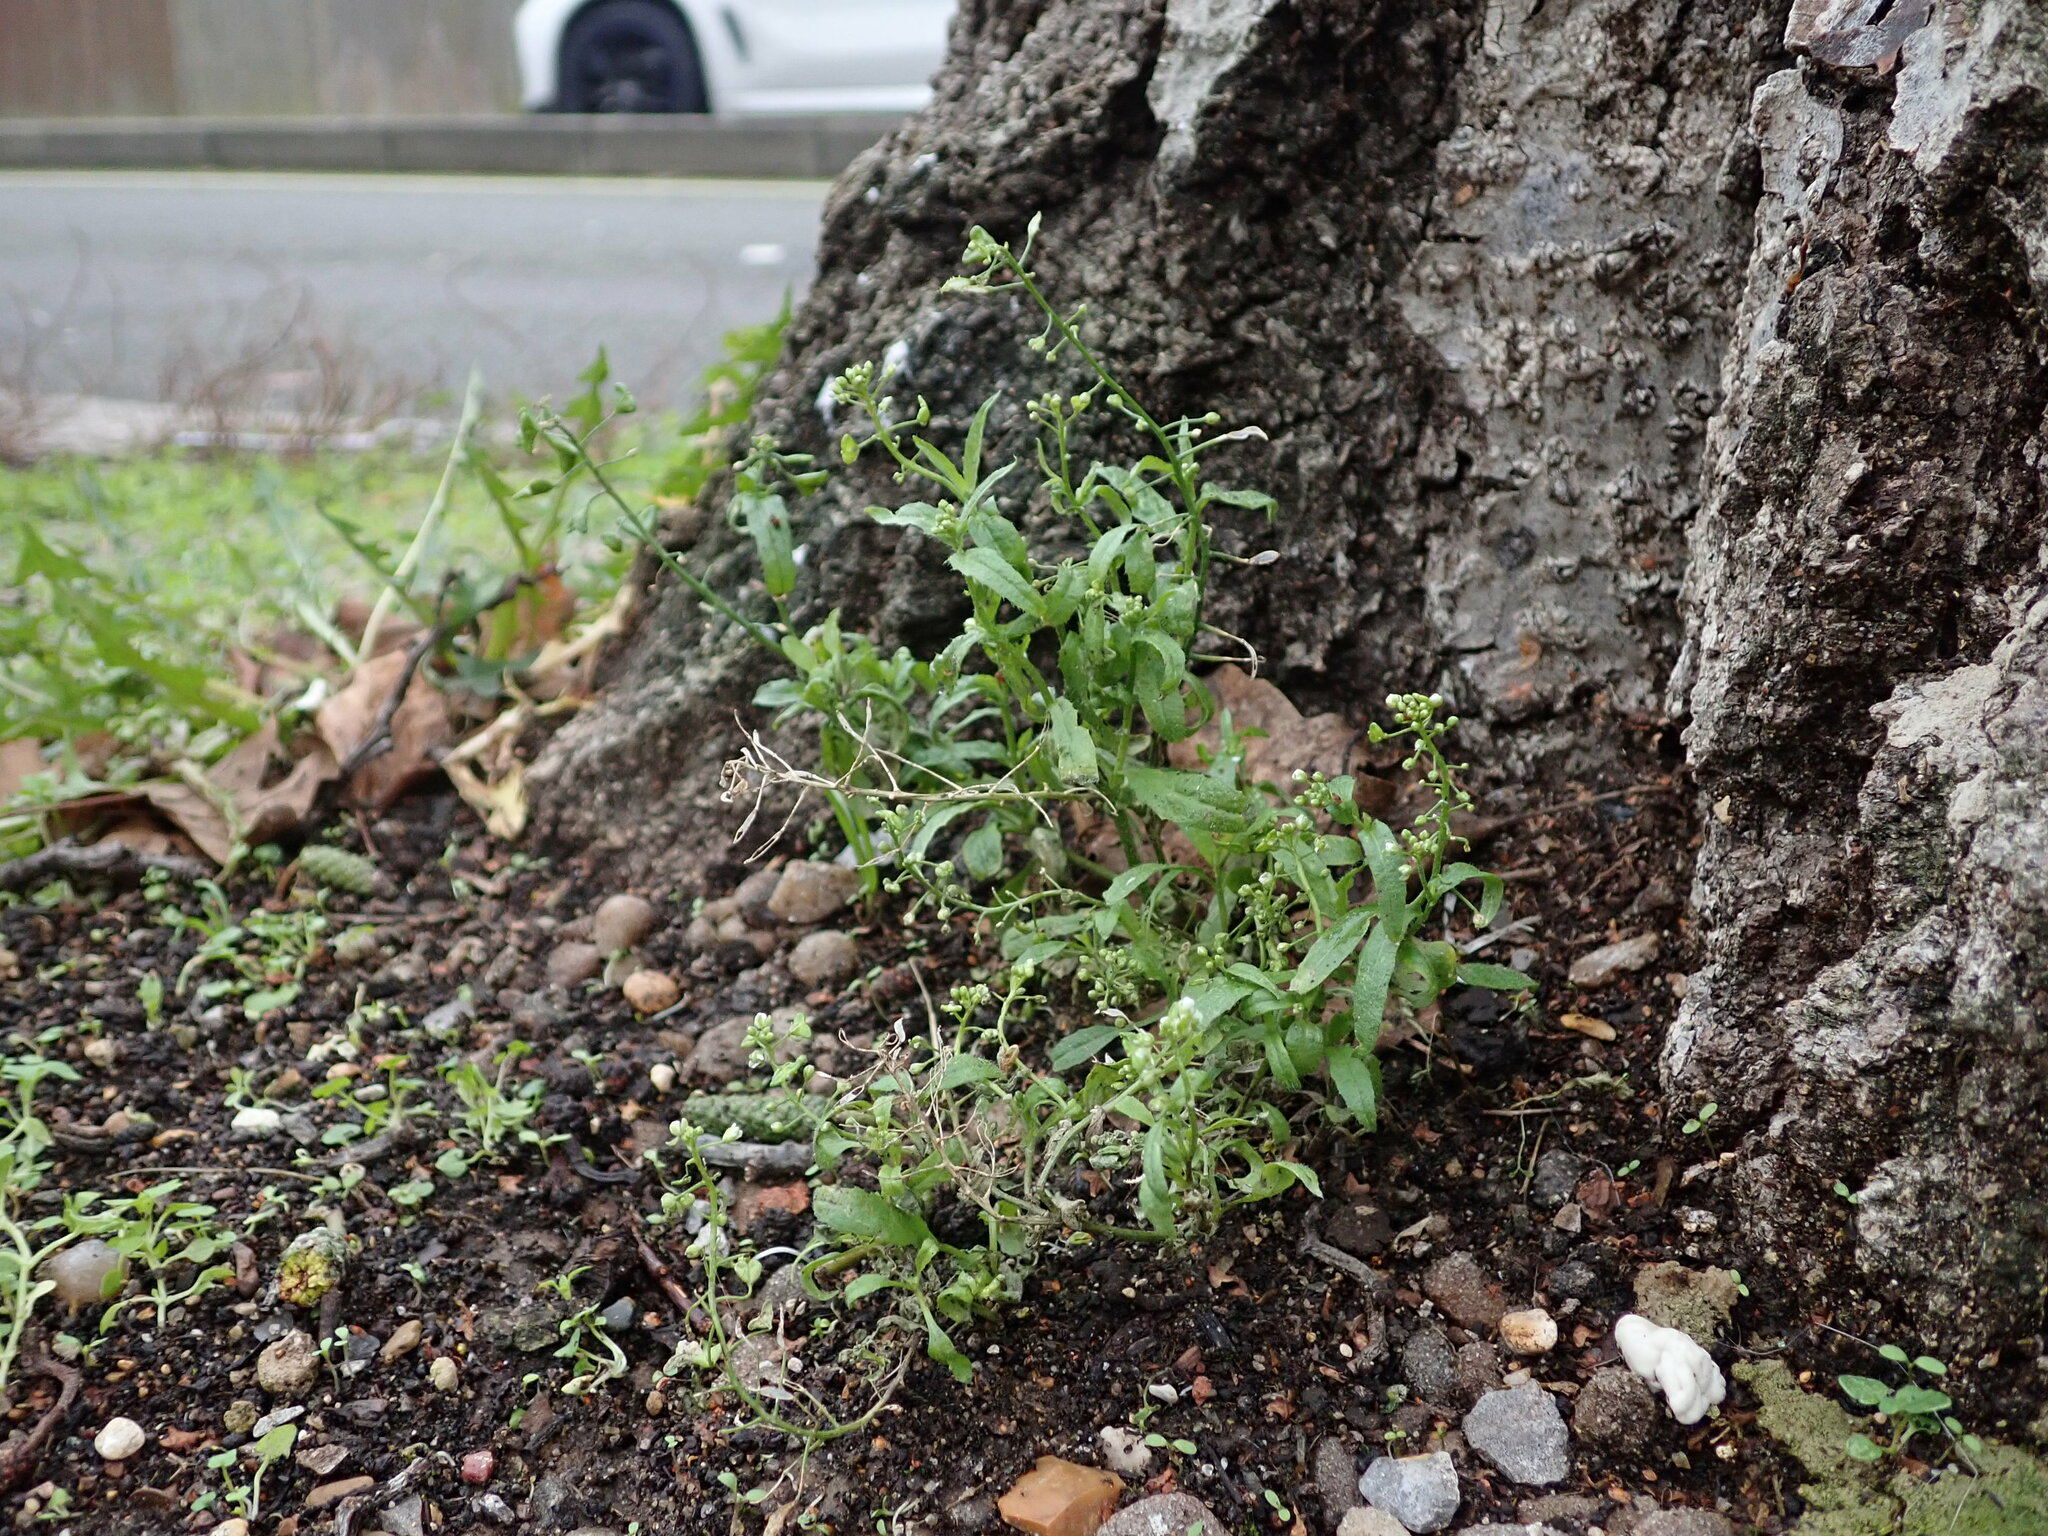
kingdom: Plantae
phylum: Tracheophyta
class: Magnoliopsida
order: Brassicales
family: Brassicaceae
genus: Capsella
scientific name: Capsella bursa-pastoris
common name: Shepherd's purse
